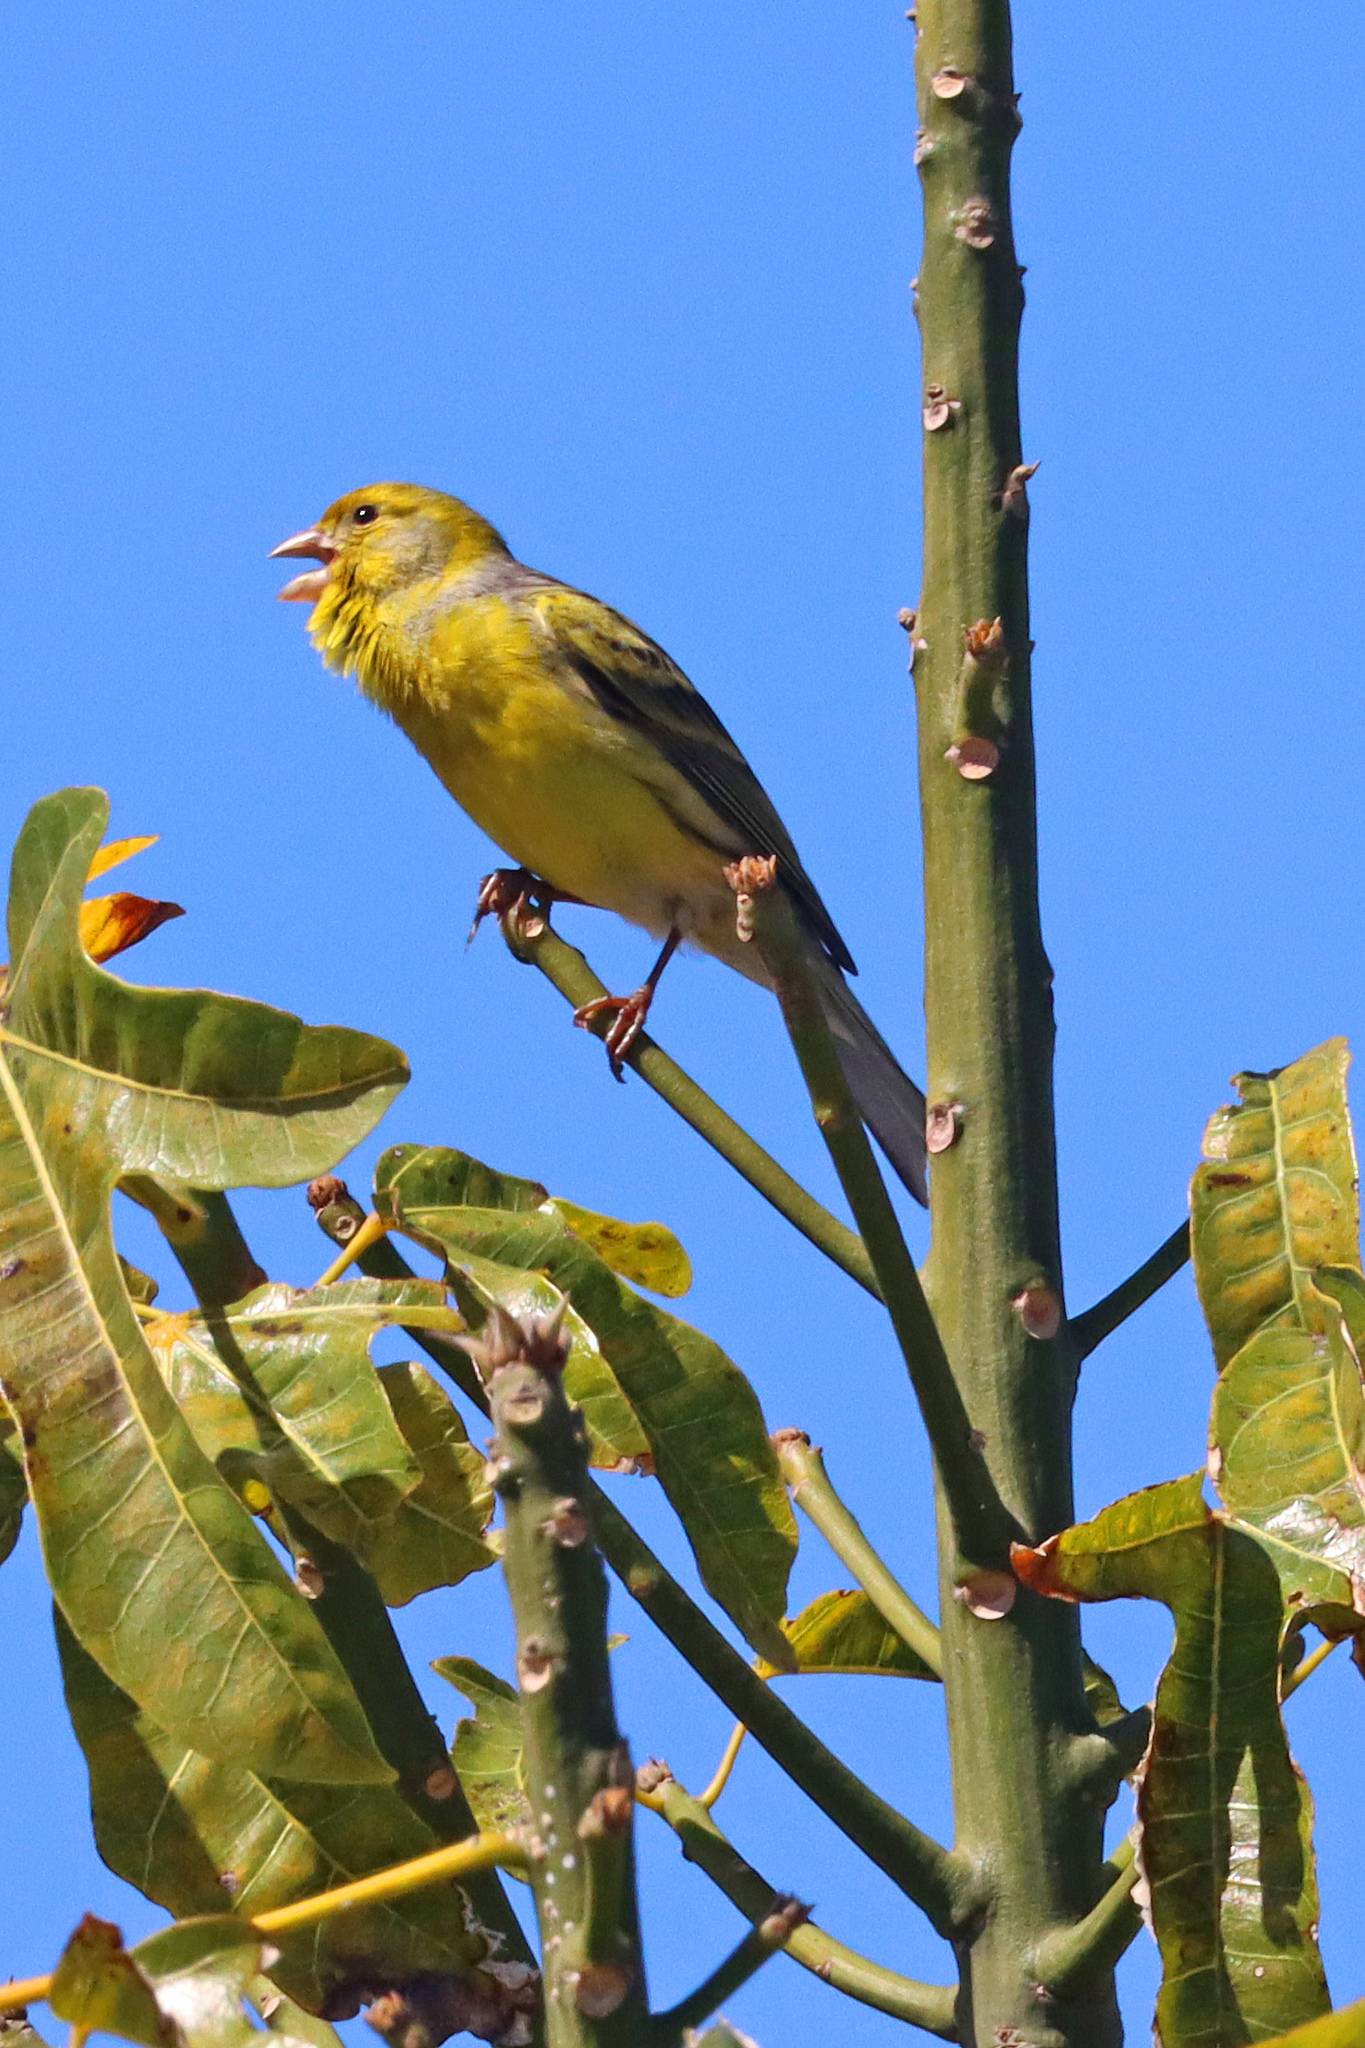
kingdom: Animalia
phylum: Chordata
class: Aves
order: Passeriformes
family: Fringillidae
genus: Serinus
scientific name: Serinus canaria
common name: Atlantic canary
